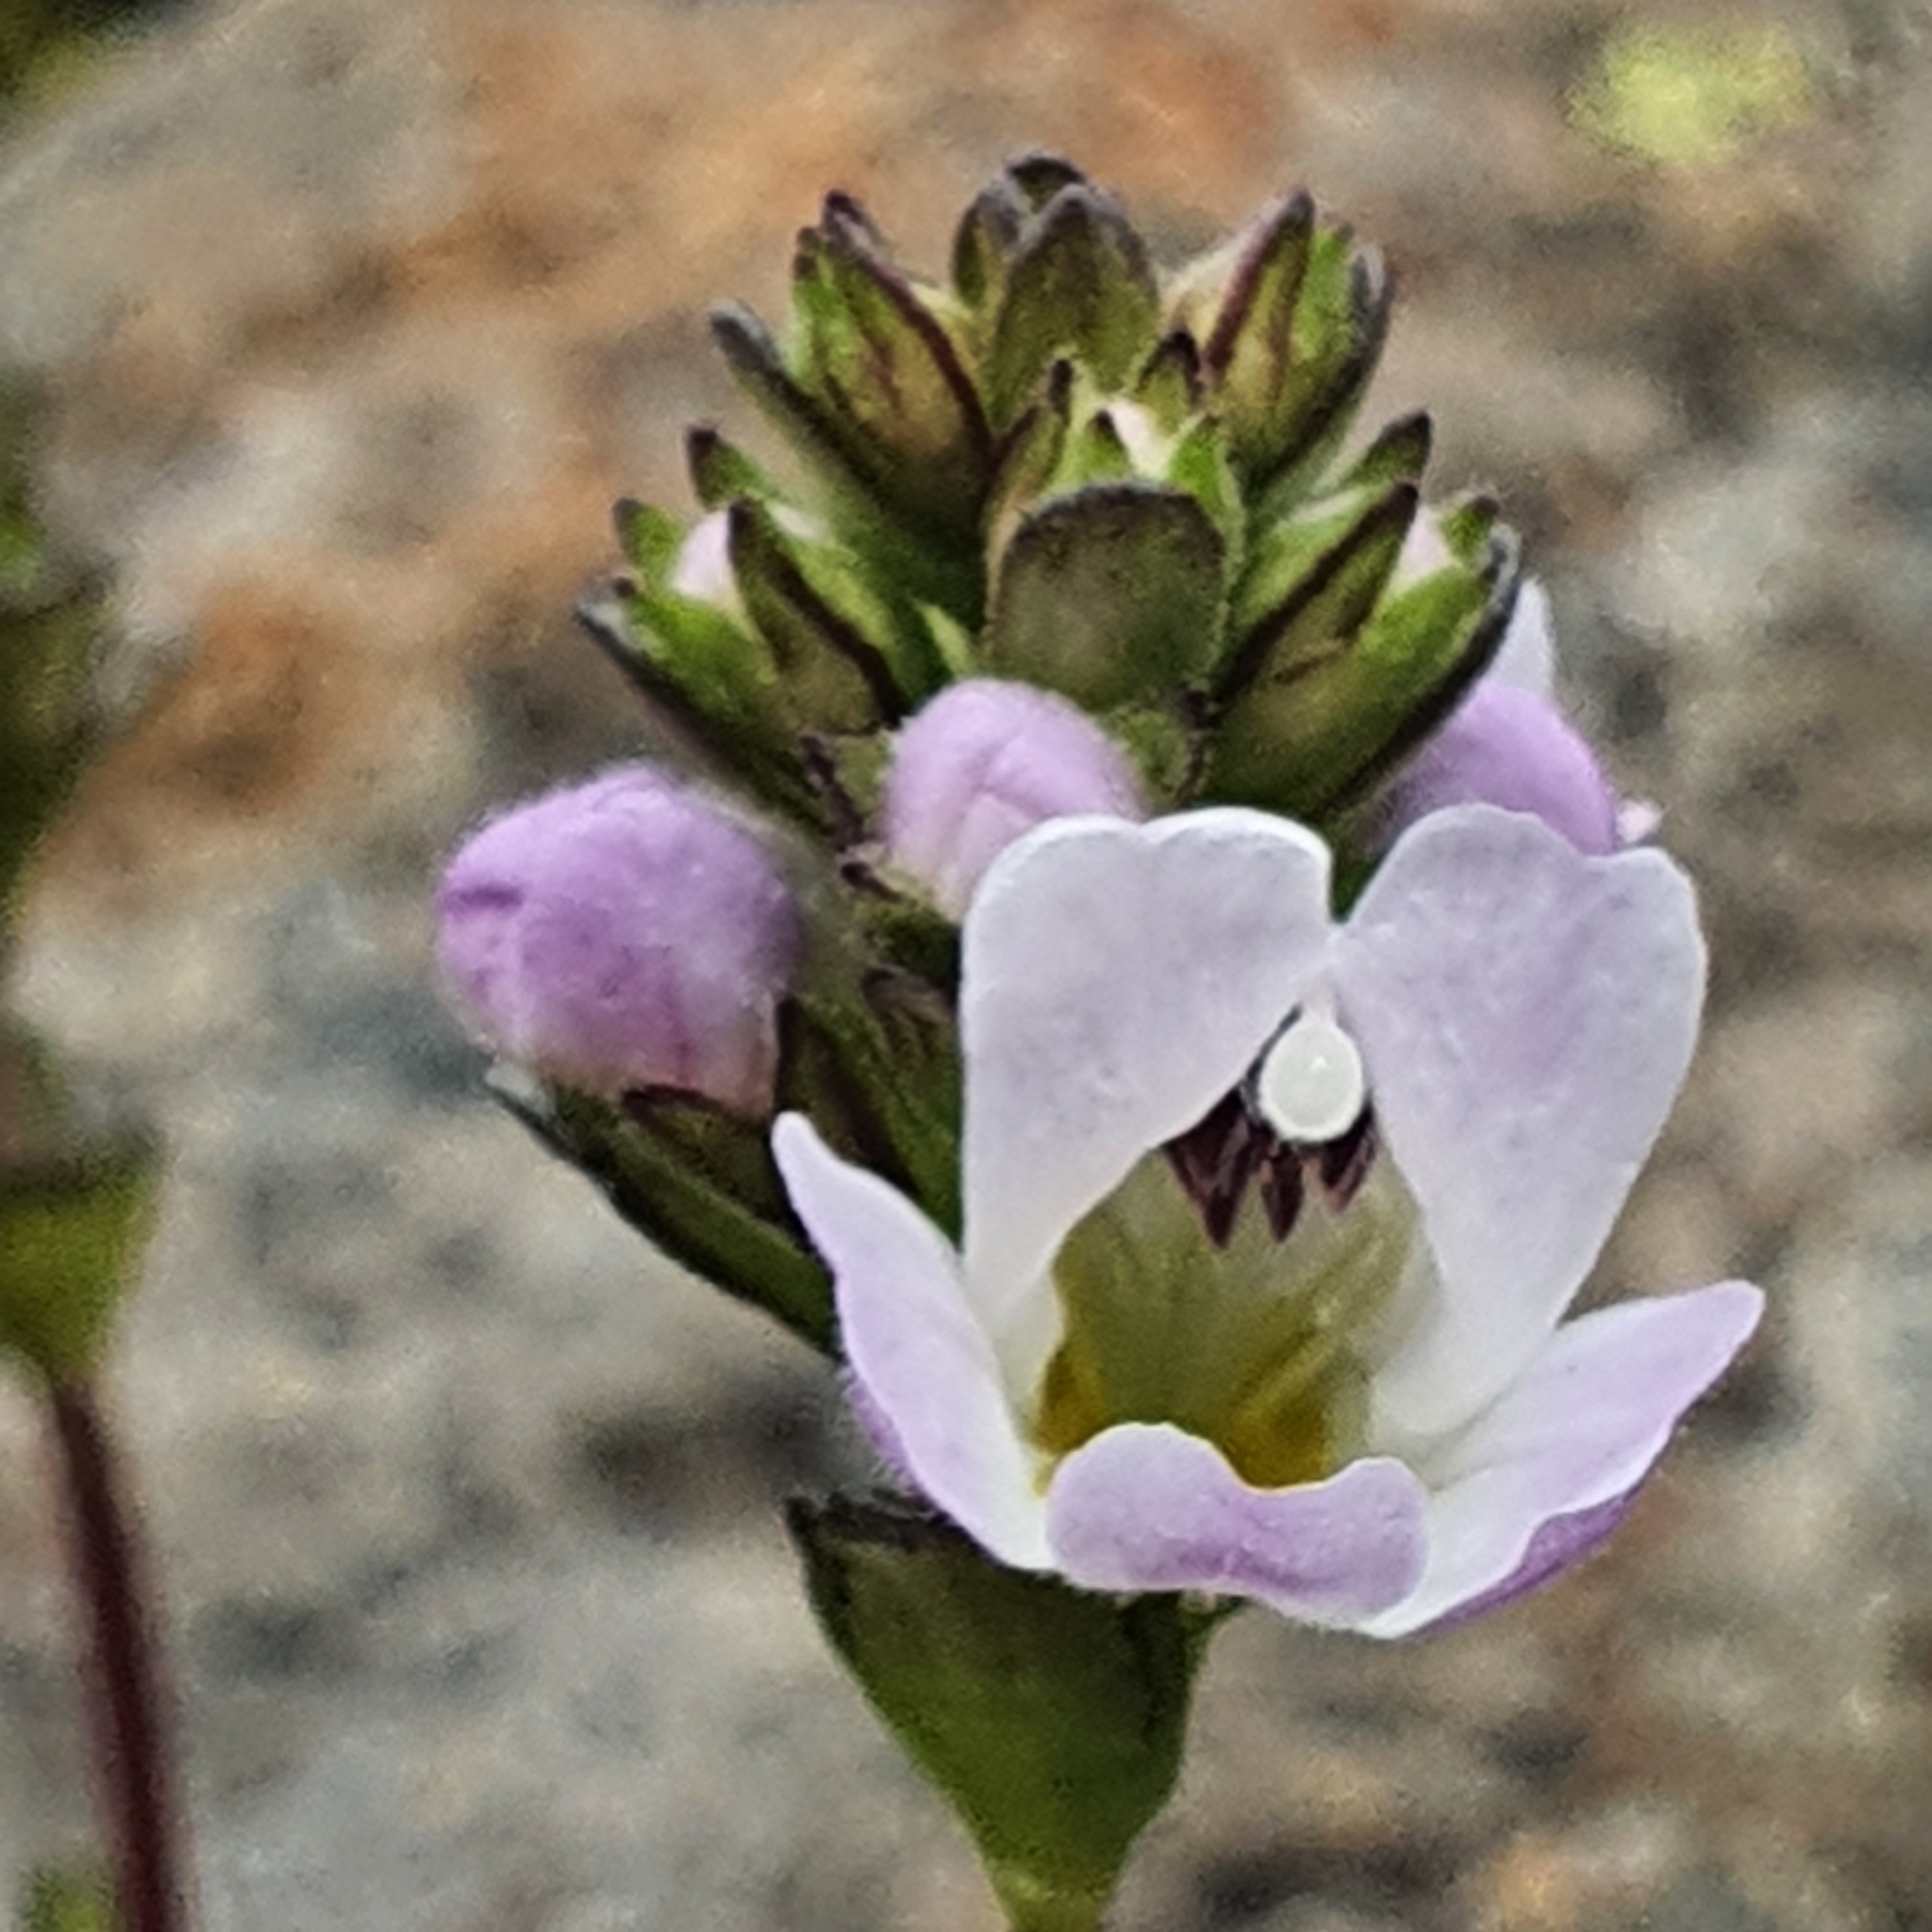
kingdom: Plantae
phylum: Tracheophyta
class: Magnoliopsida
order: Lamiales
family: Orobanchaceae
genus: Euphrasia
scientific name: Euphrasia collina
